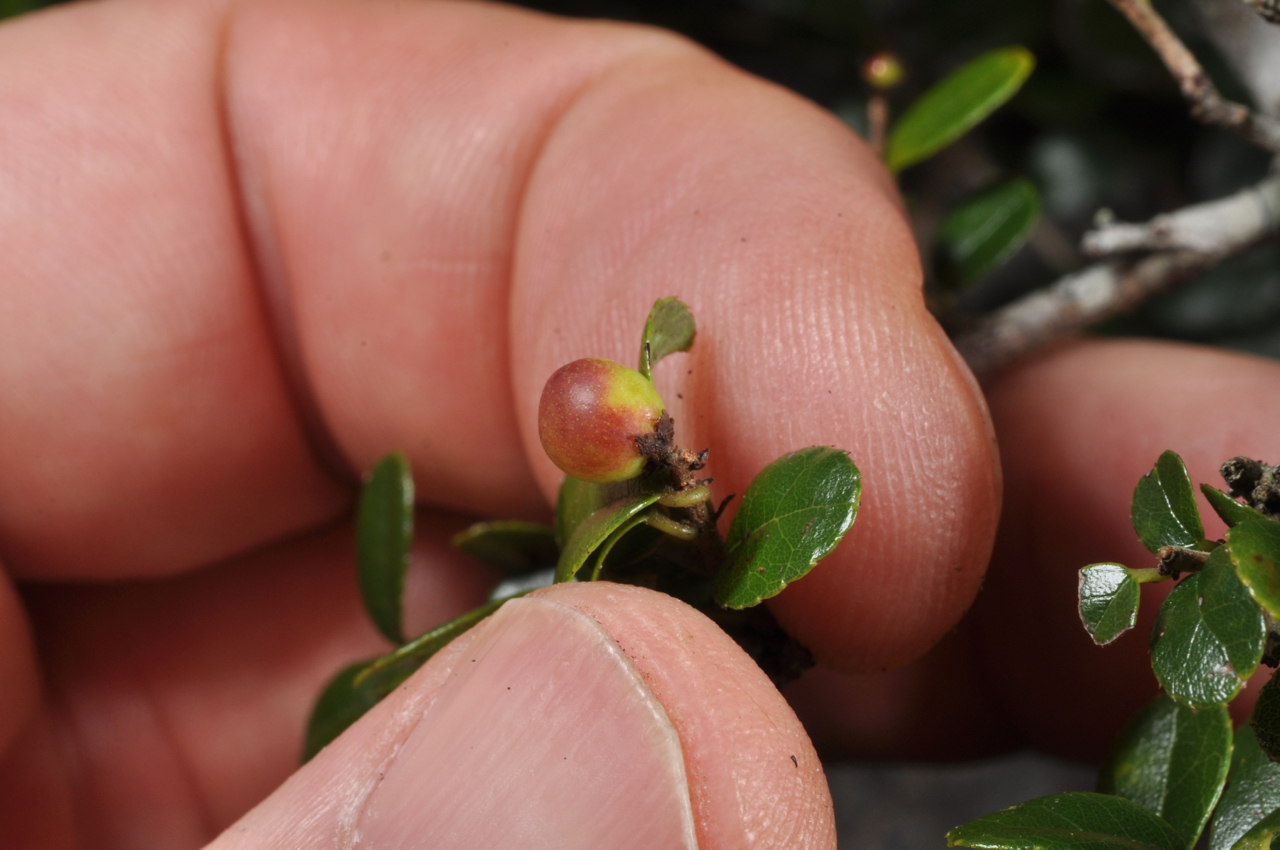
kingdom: Plantae
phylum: Tracheophyta
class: Magnoliopsida
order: Rosales
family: Rhamnaceae
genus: Sageretia
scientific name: Sageretia thea
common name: Pauper's-tea
